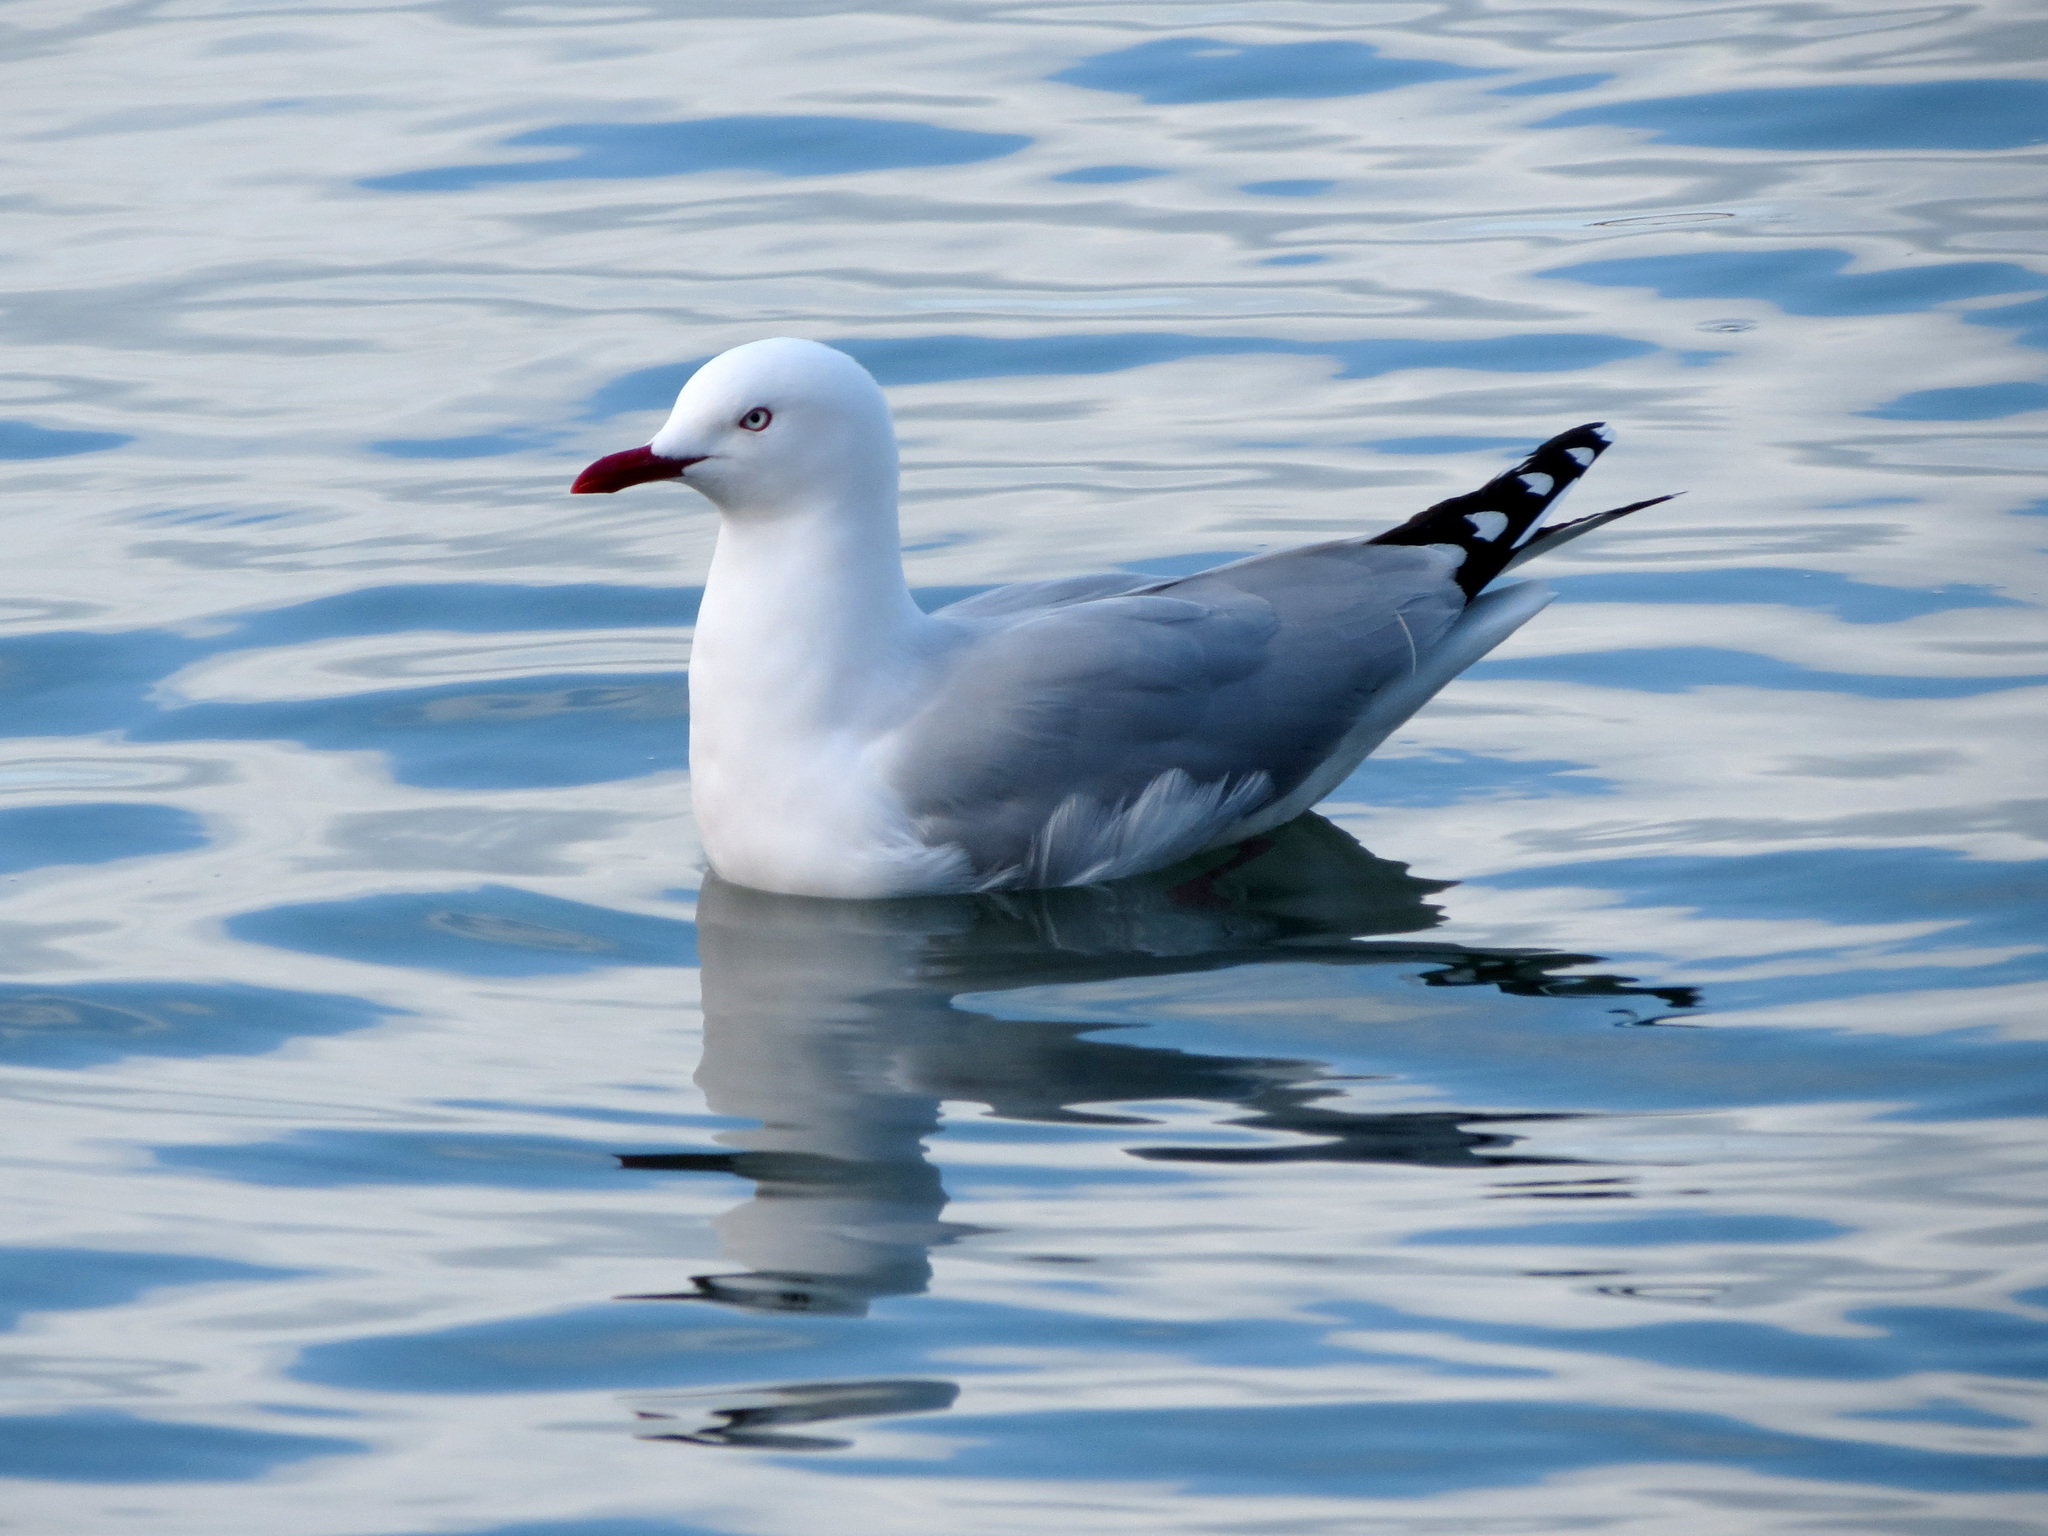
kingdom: Animalia
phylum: Chordata
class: Aves
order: Charadriiformes
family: Laridae
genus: Chroicocephalus
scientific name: Chroicocephalus novaehollandiae
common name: Silver gull
